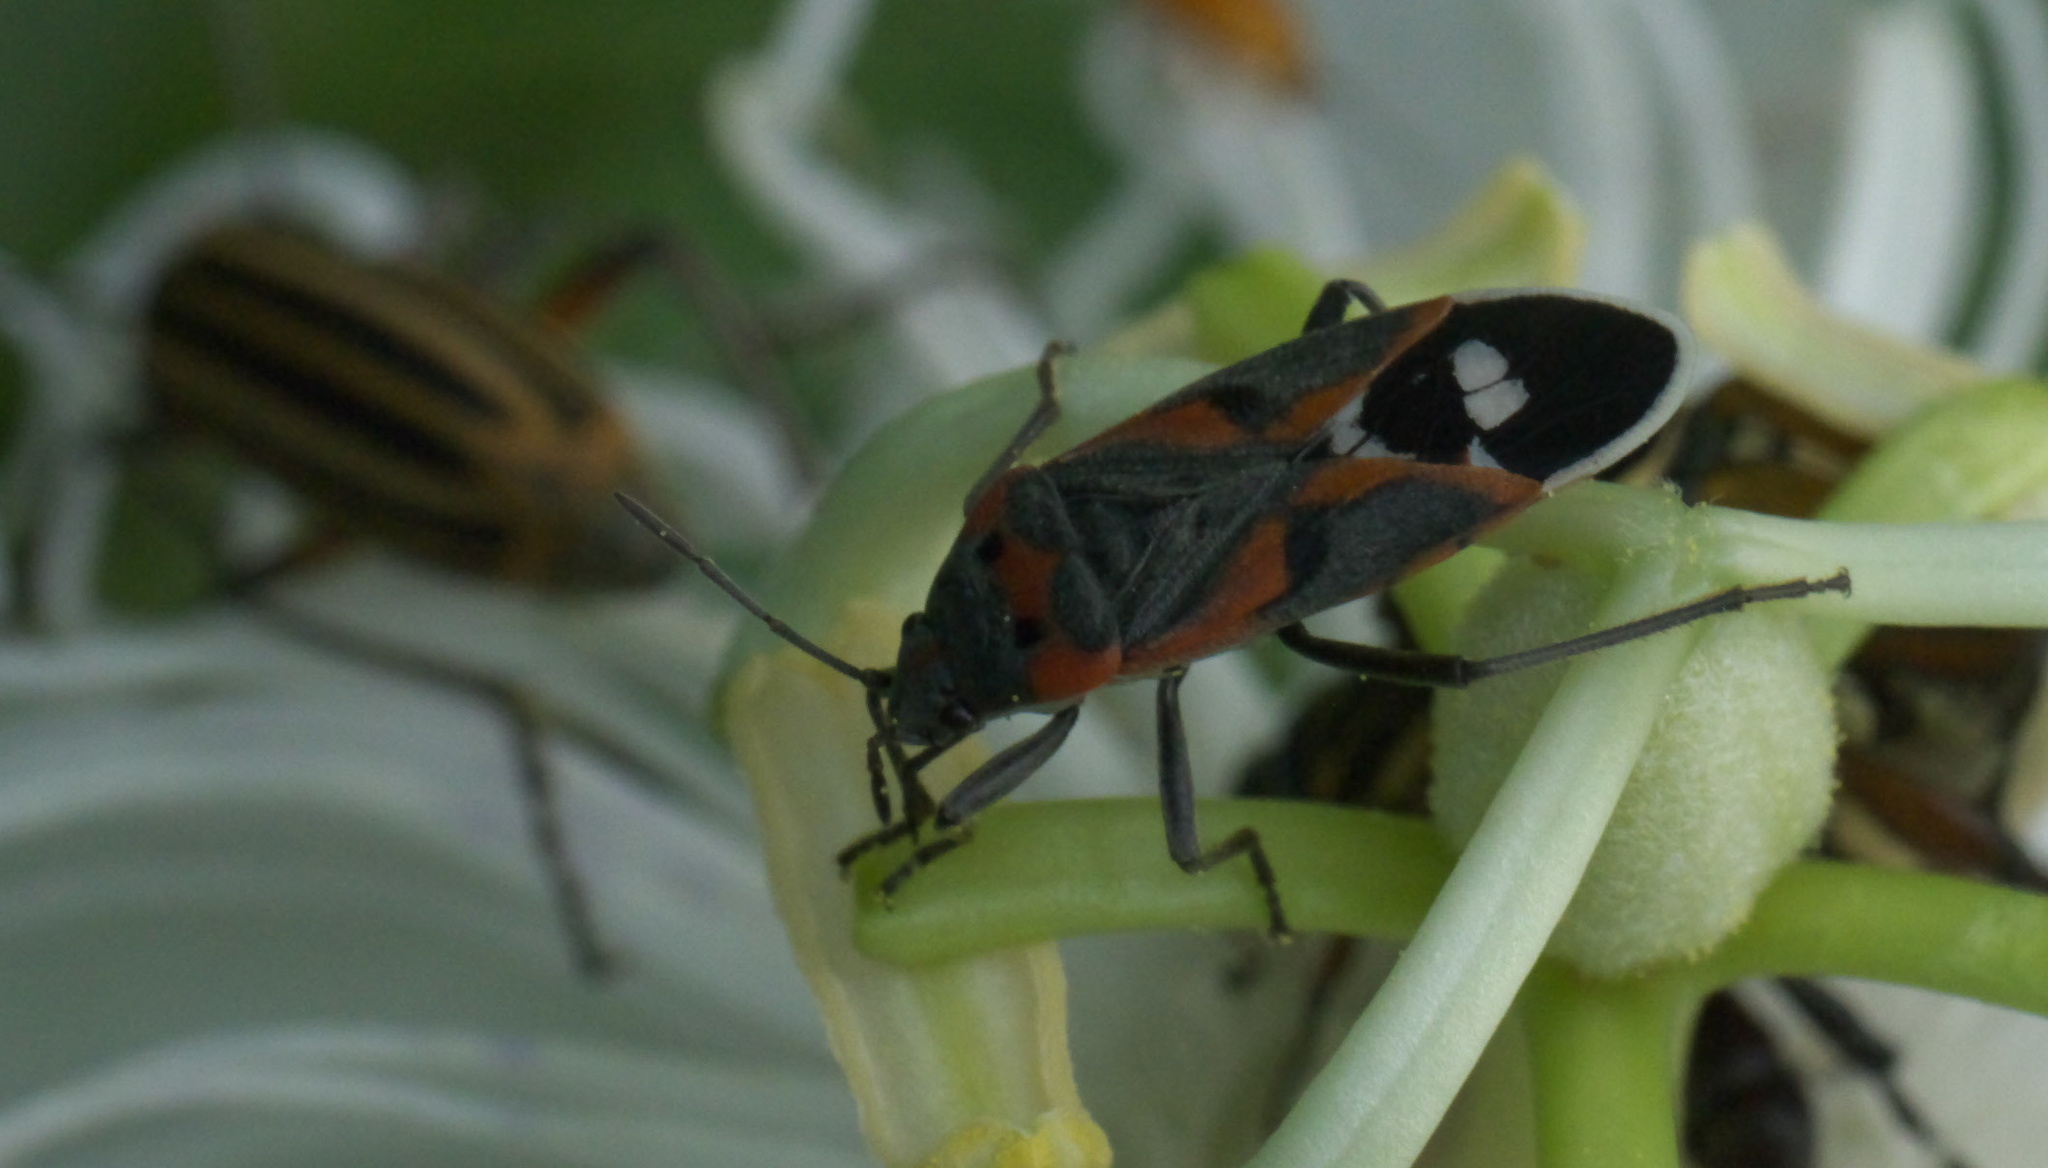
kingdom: Animalia
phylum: Arthropoda
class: Insecta
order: Hemiptera
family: Lygaeidae
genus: Lygaeus
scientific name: Lygaeus kalmii
